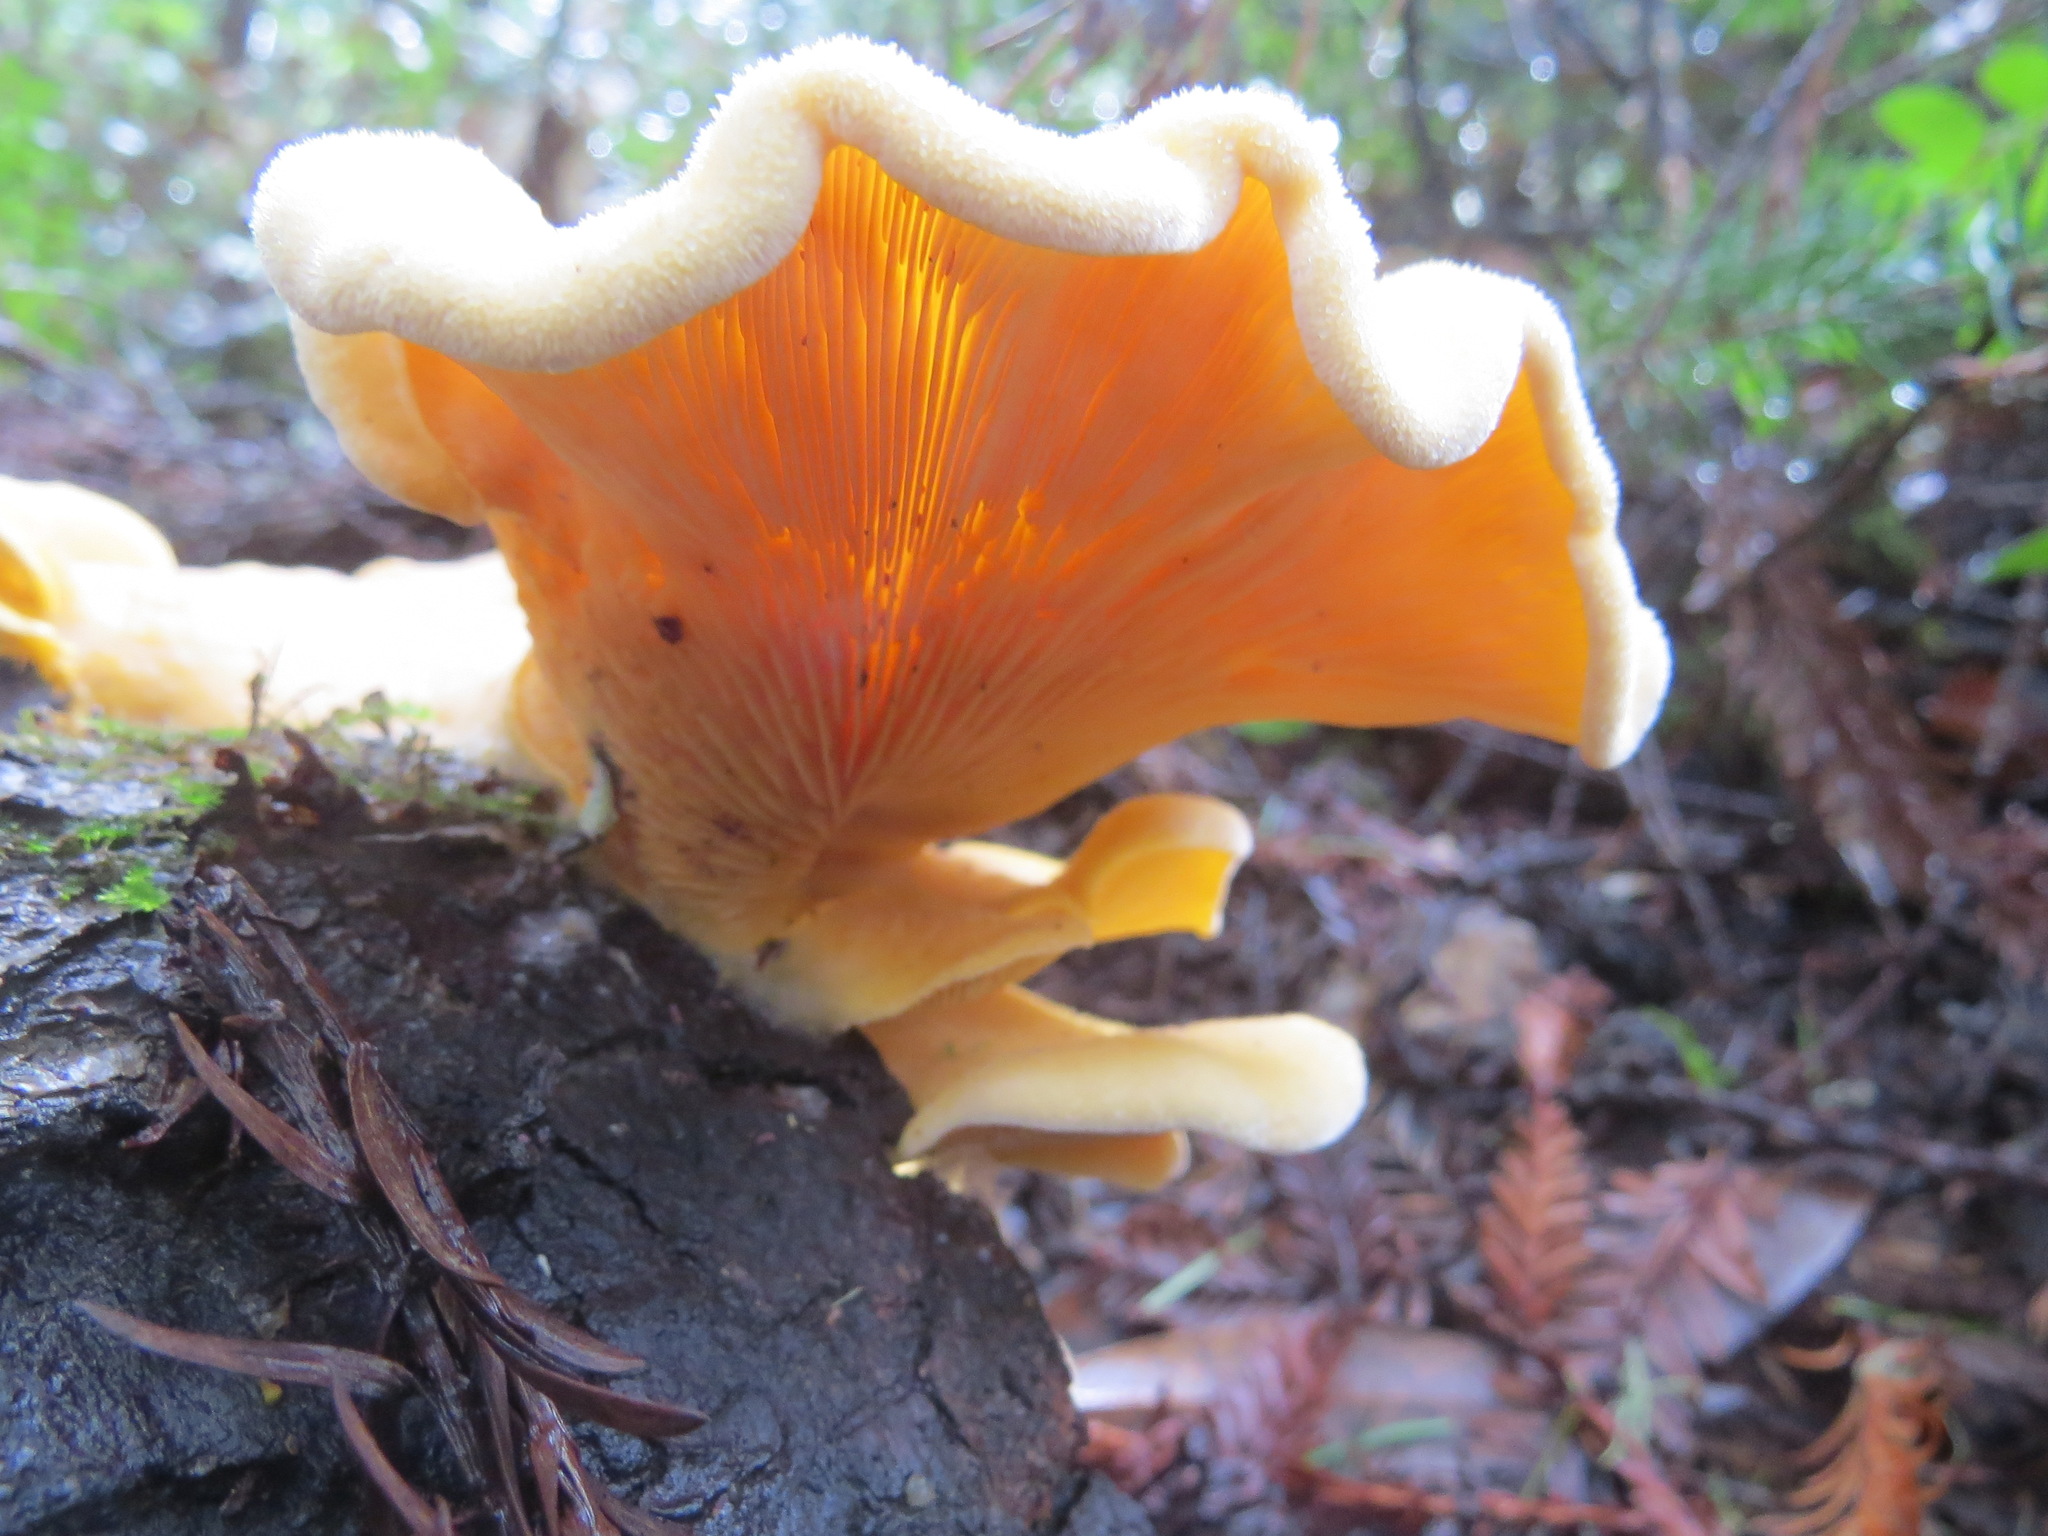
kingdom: Fungi
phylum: Basidiomycota
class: Agaricomycetes
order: Agaricales
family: Phyllotopsidaceae
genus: Phyllotopsis
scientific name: Phyllotopsis nidulans
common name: Orange mock oyster
